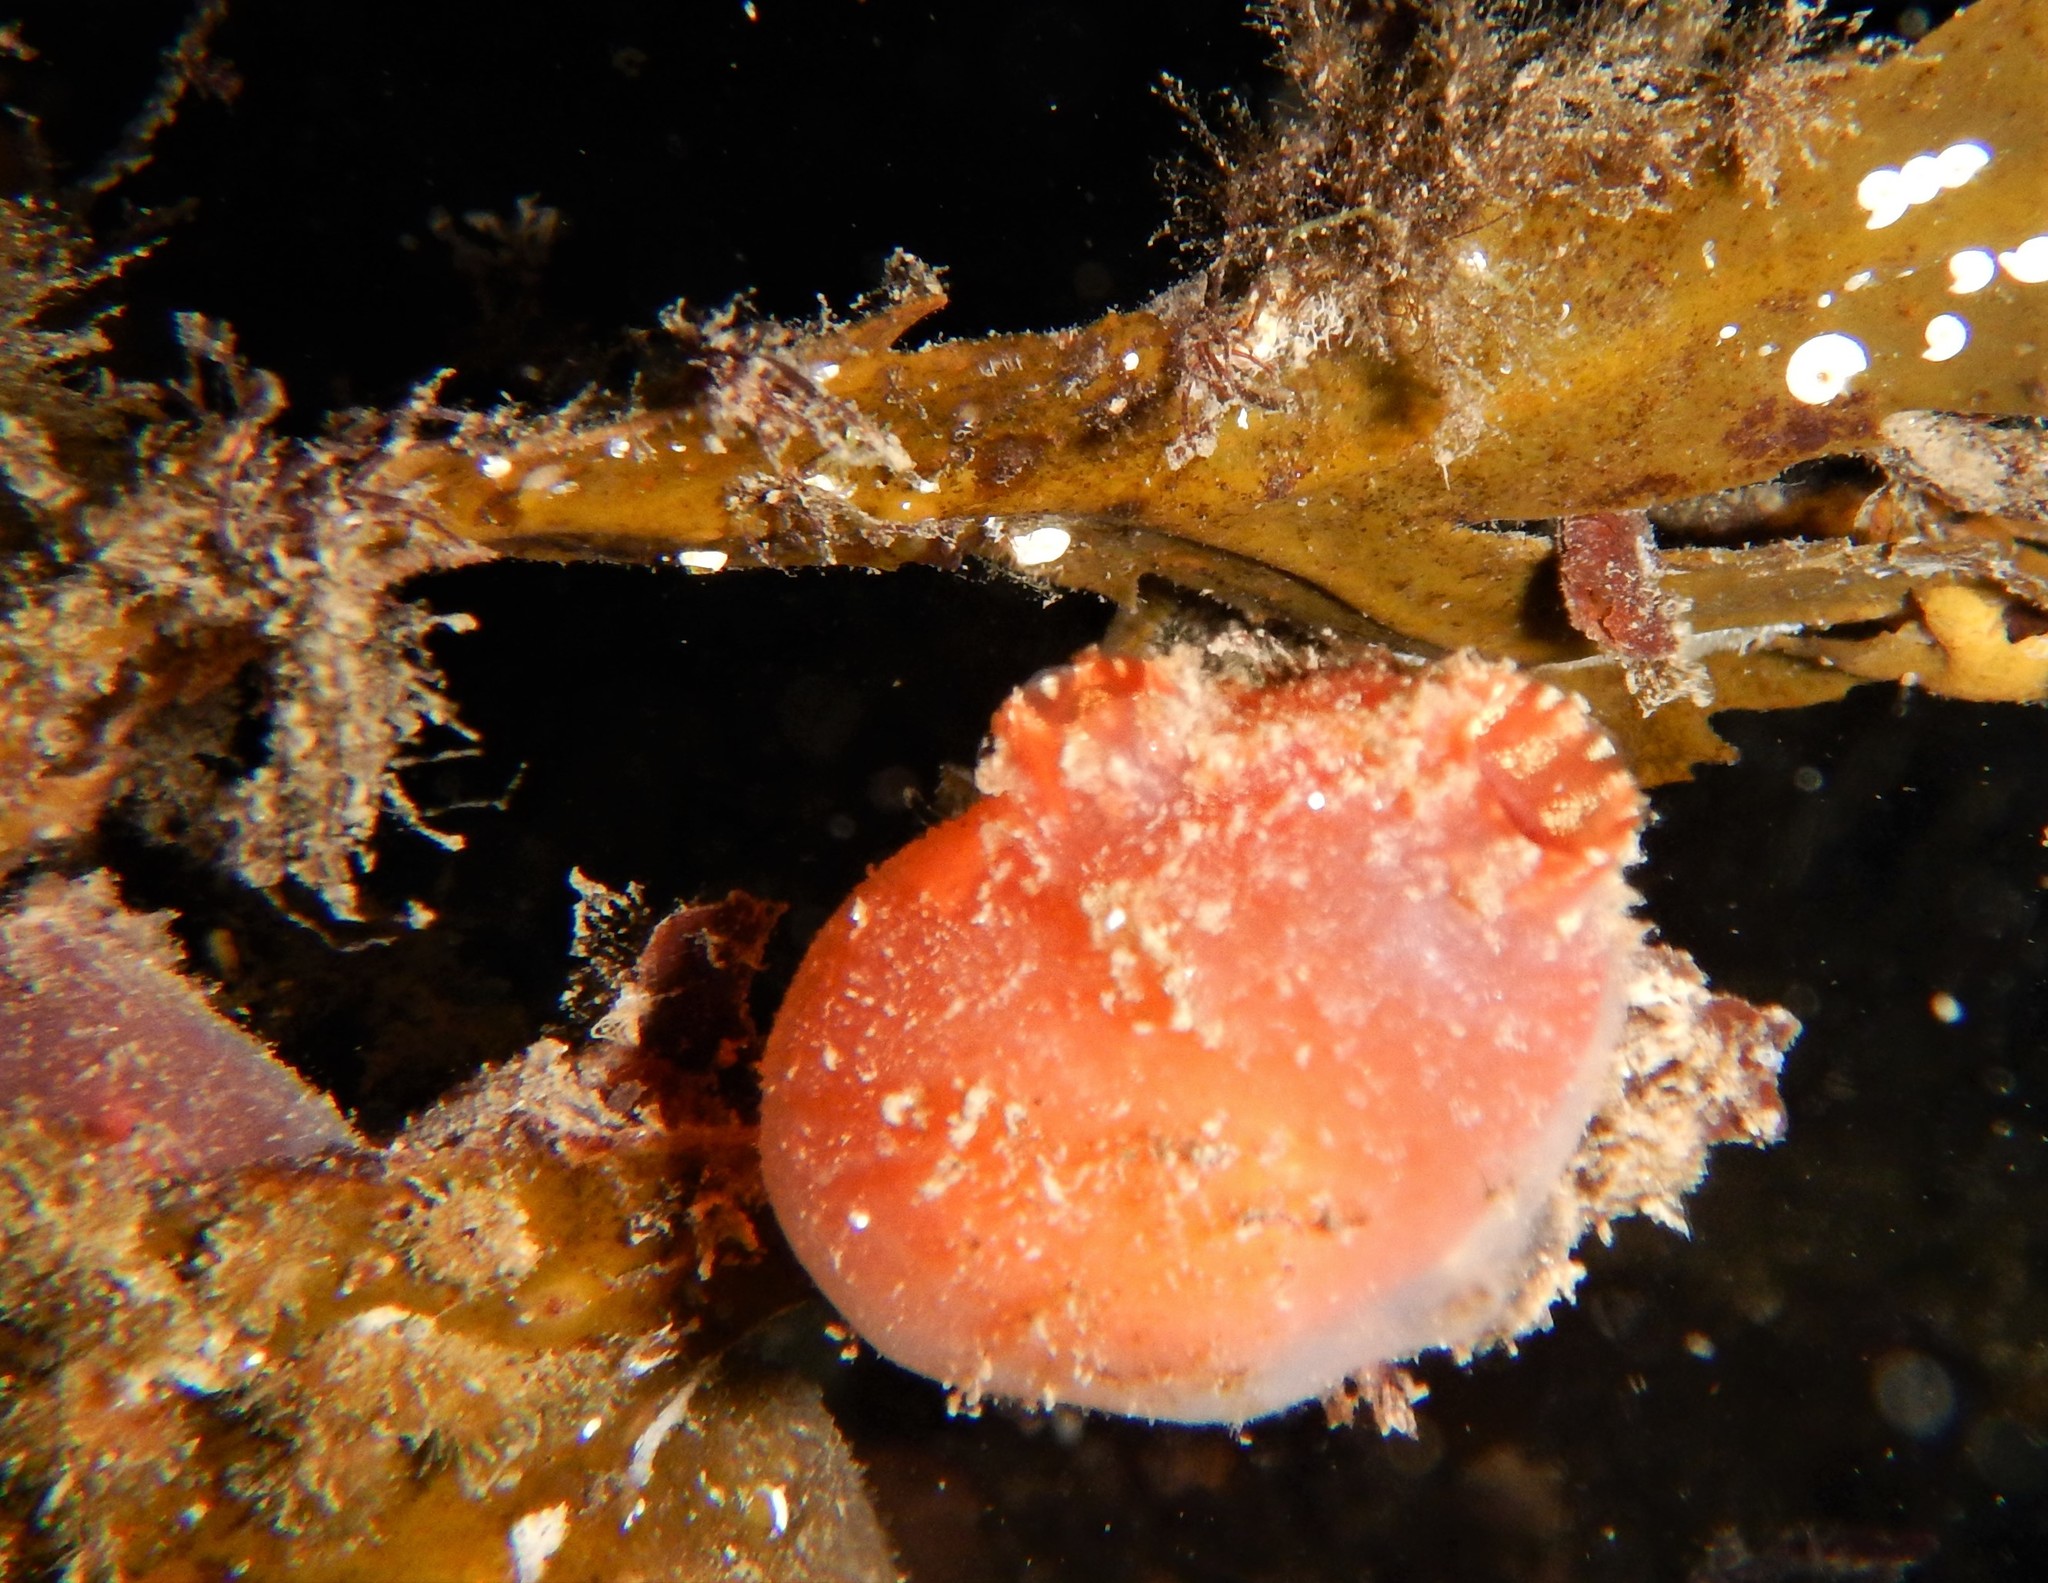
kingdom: Animalia
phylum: Chordata
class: Ascidiacea
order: Stolidobranchia
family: Styelidae
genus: Dendrodoa
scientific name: Dendrodoa grossularia
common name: Baked bean ascidian
